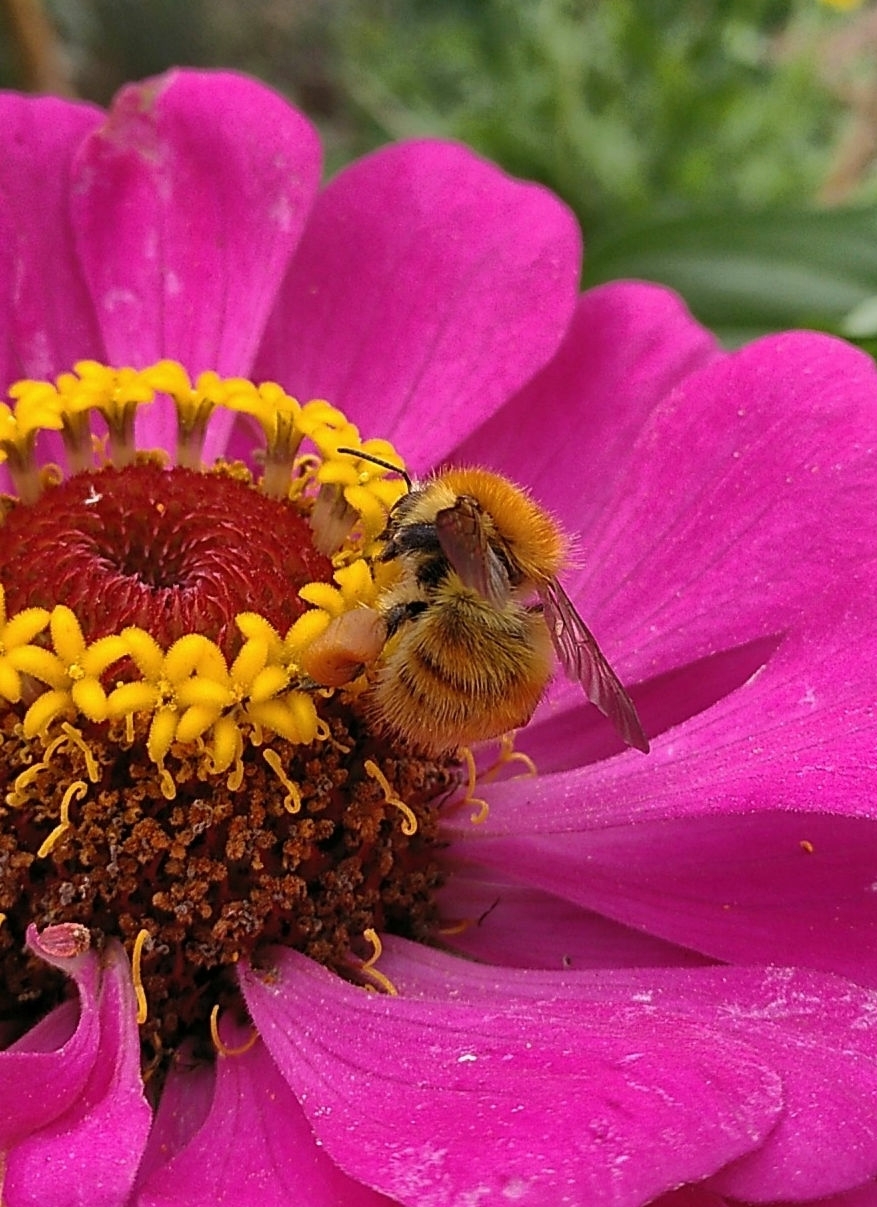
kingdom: Animalia
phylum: Arthropoda
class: Insecta
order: Hymenoptera
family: Apidae
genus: Bombus
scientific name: Bombus pascuorum
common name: Common carder bee
